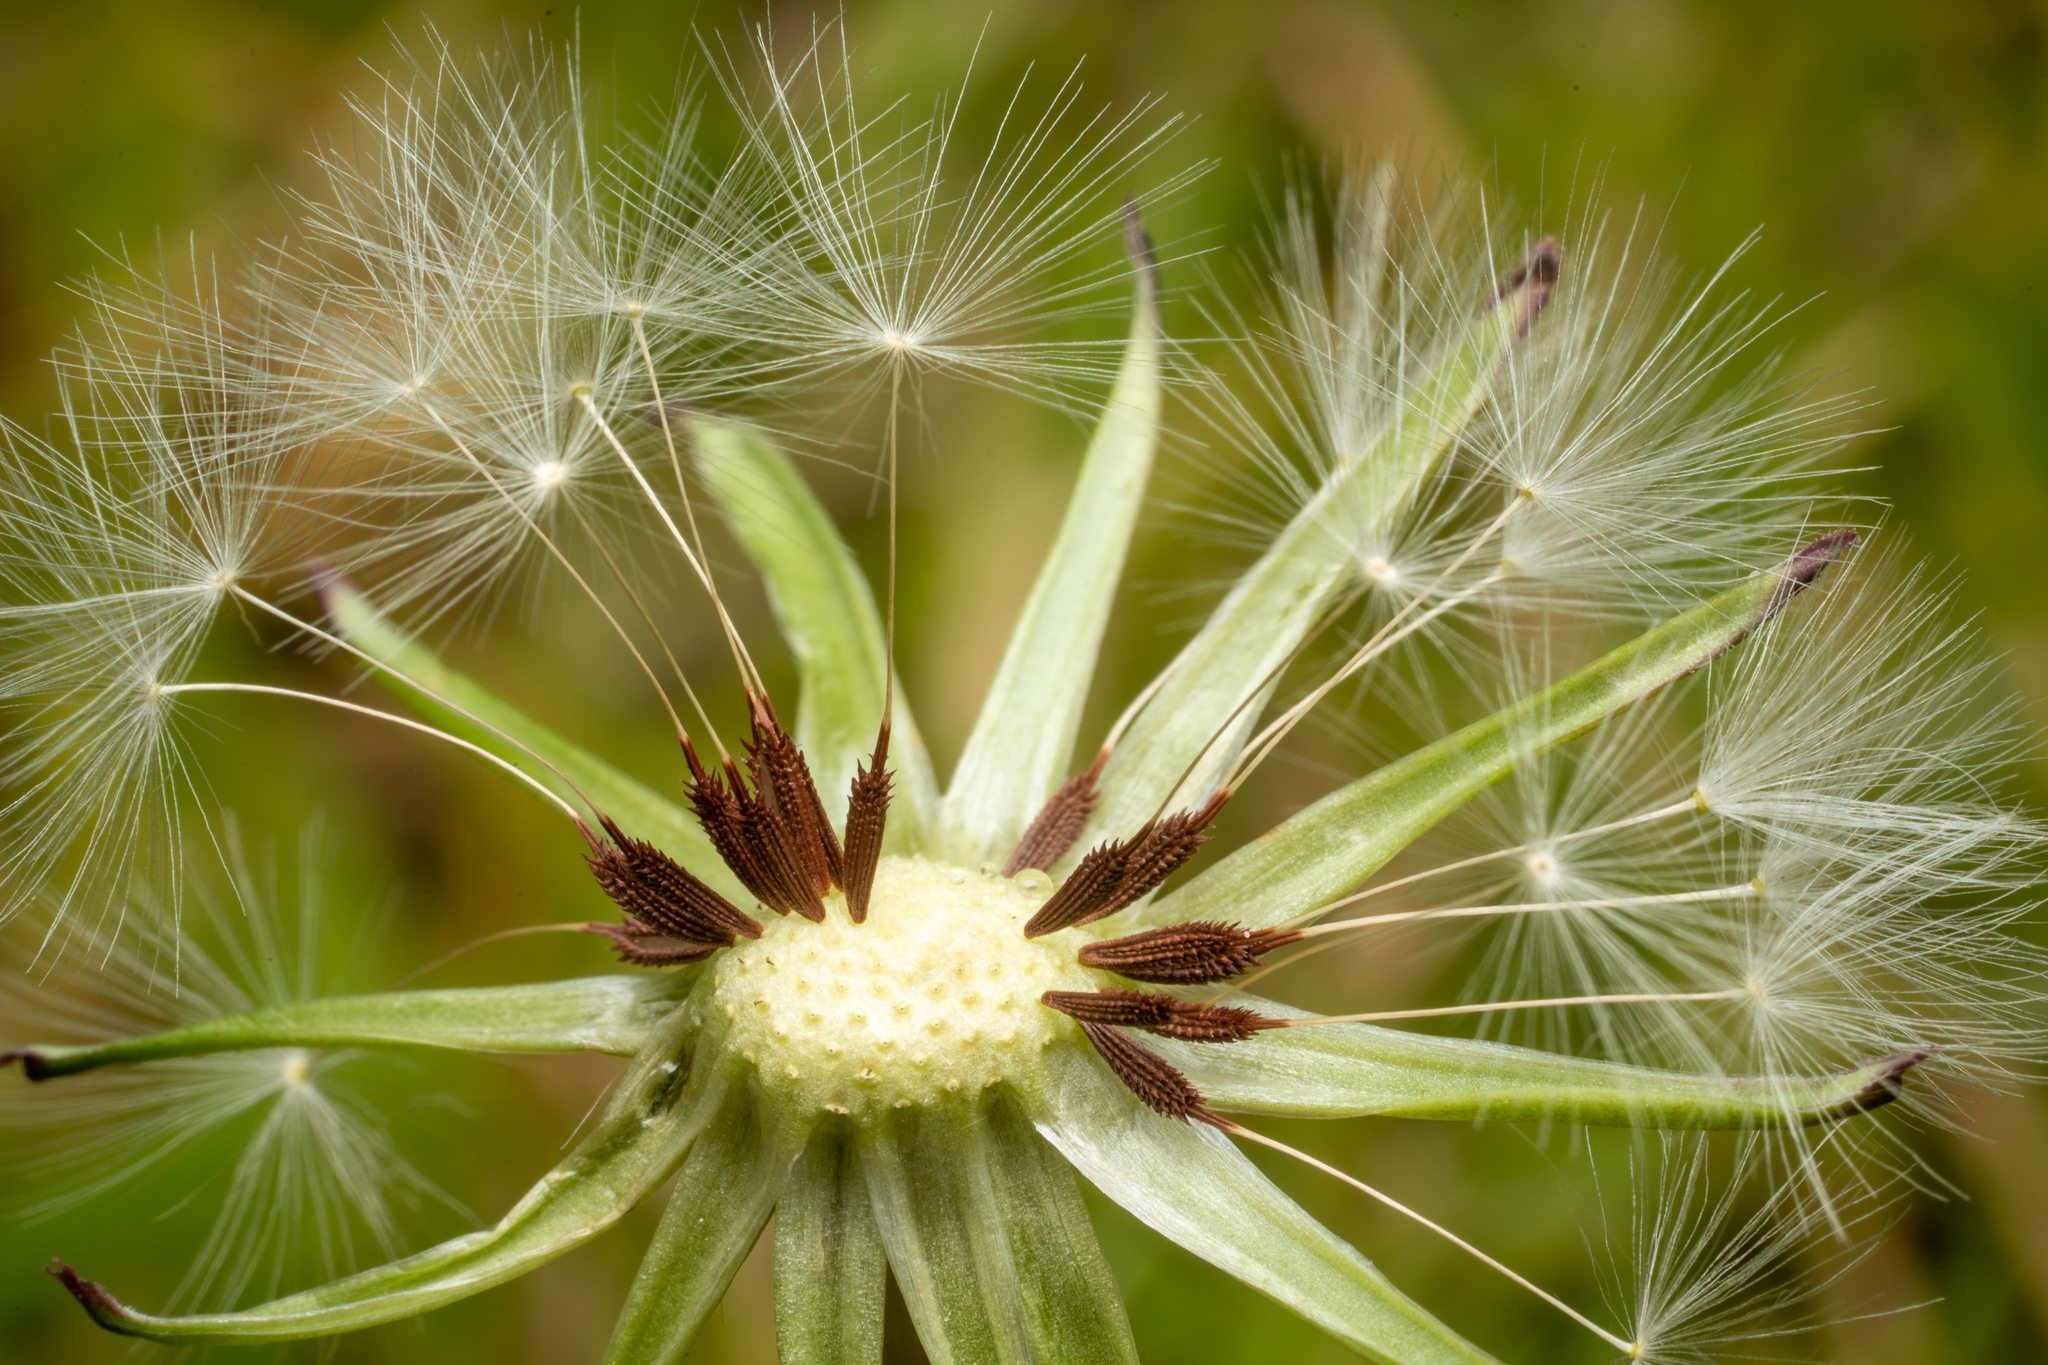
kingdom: Plantae
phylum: Tracheophyta
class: Magnoliopsida
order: Asterales
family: Asteraceae
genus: Taraxacum
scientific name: Taraxacum erythrospermum
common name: Rock dandelion
